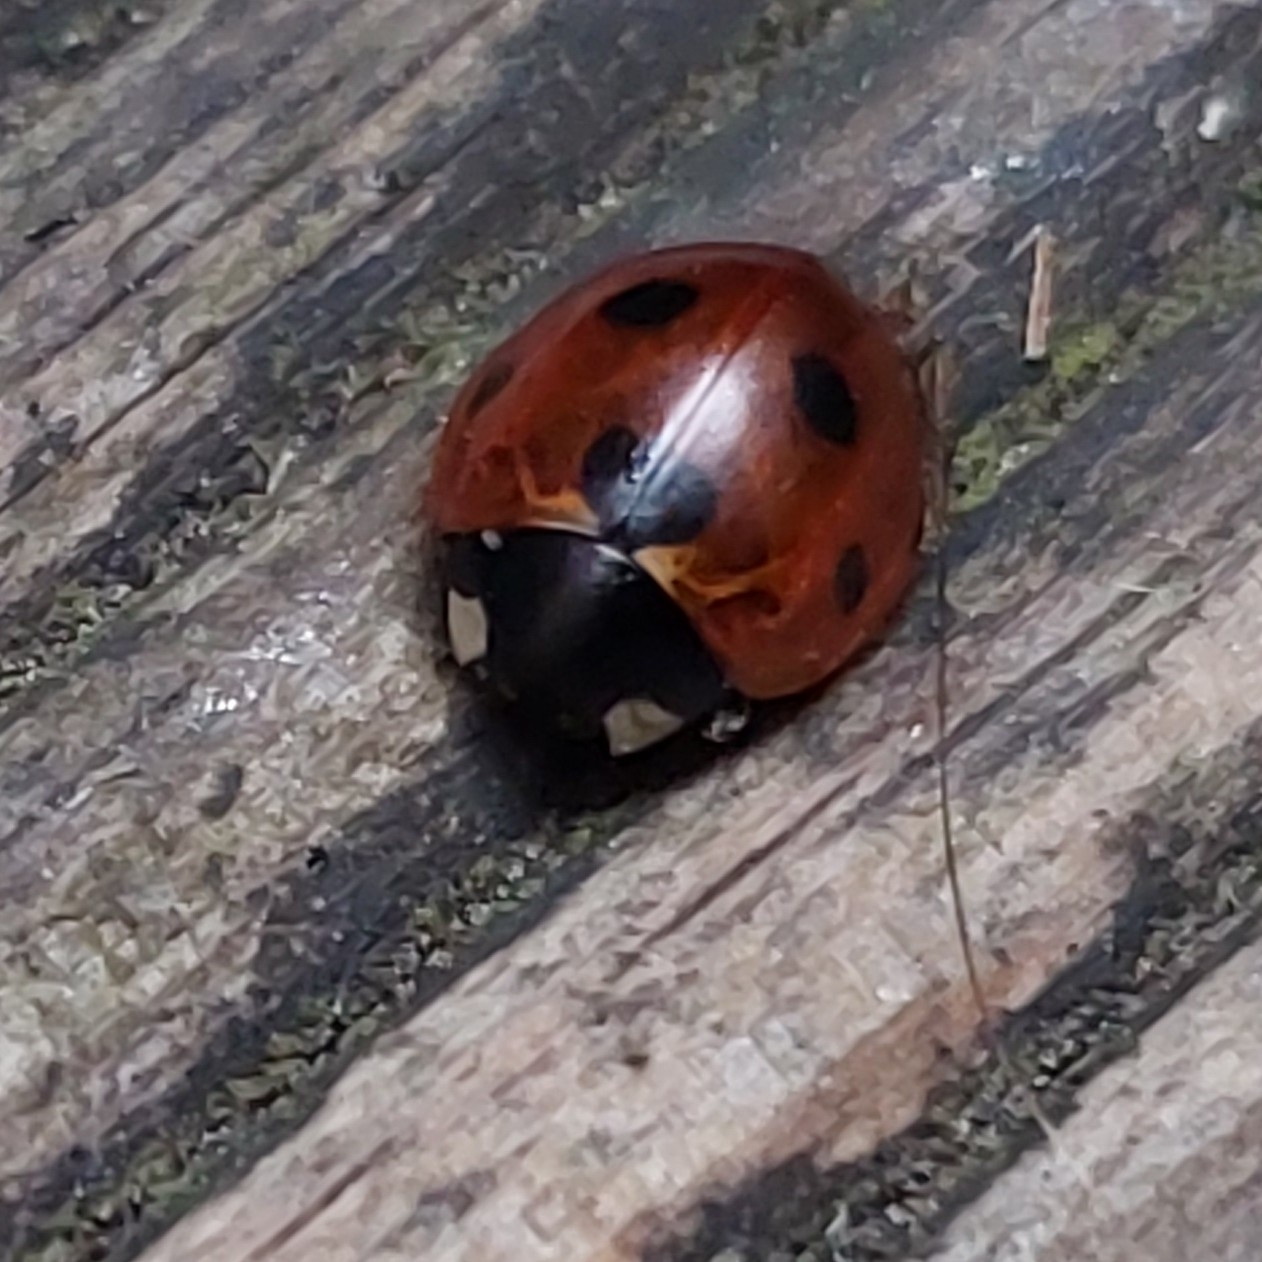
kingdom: Animalia
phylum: Arthropoda
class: Insecta
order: Coleoptera
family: Coccinellidae
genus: Coccinella
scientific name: Coccinella septempunctata
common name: Sevenspotted lady beetle
